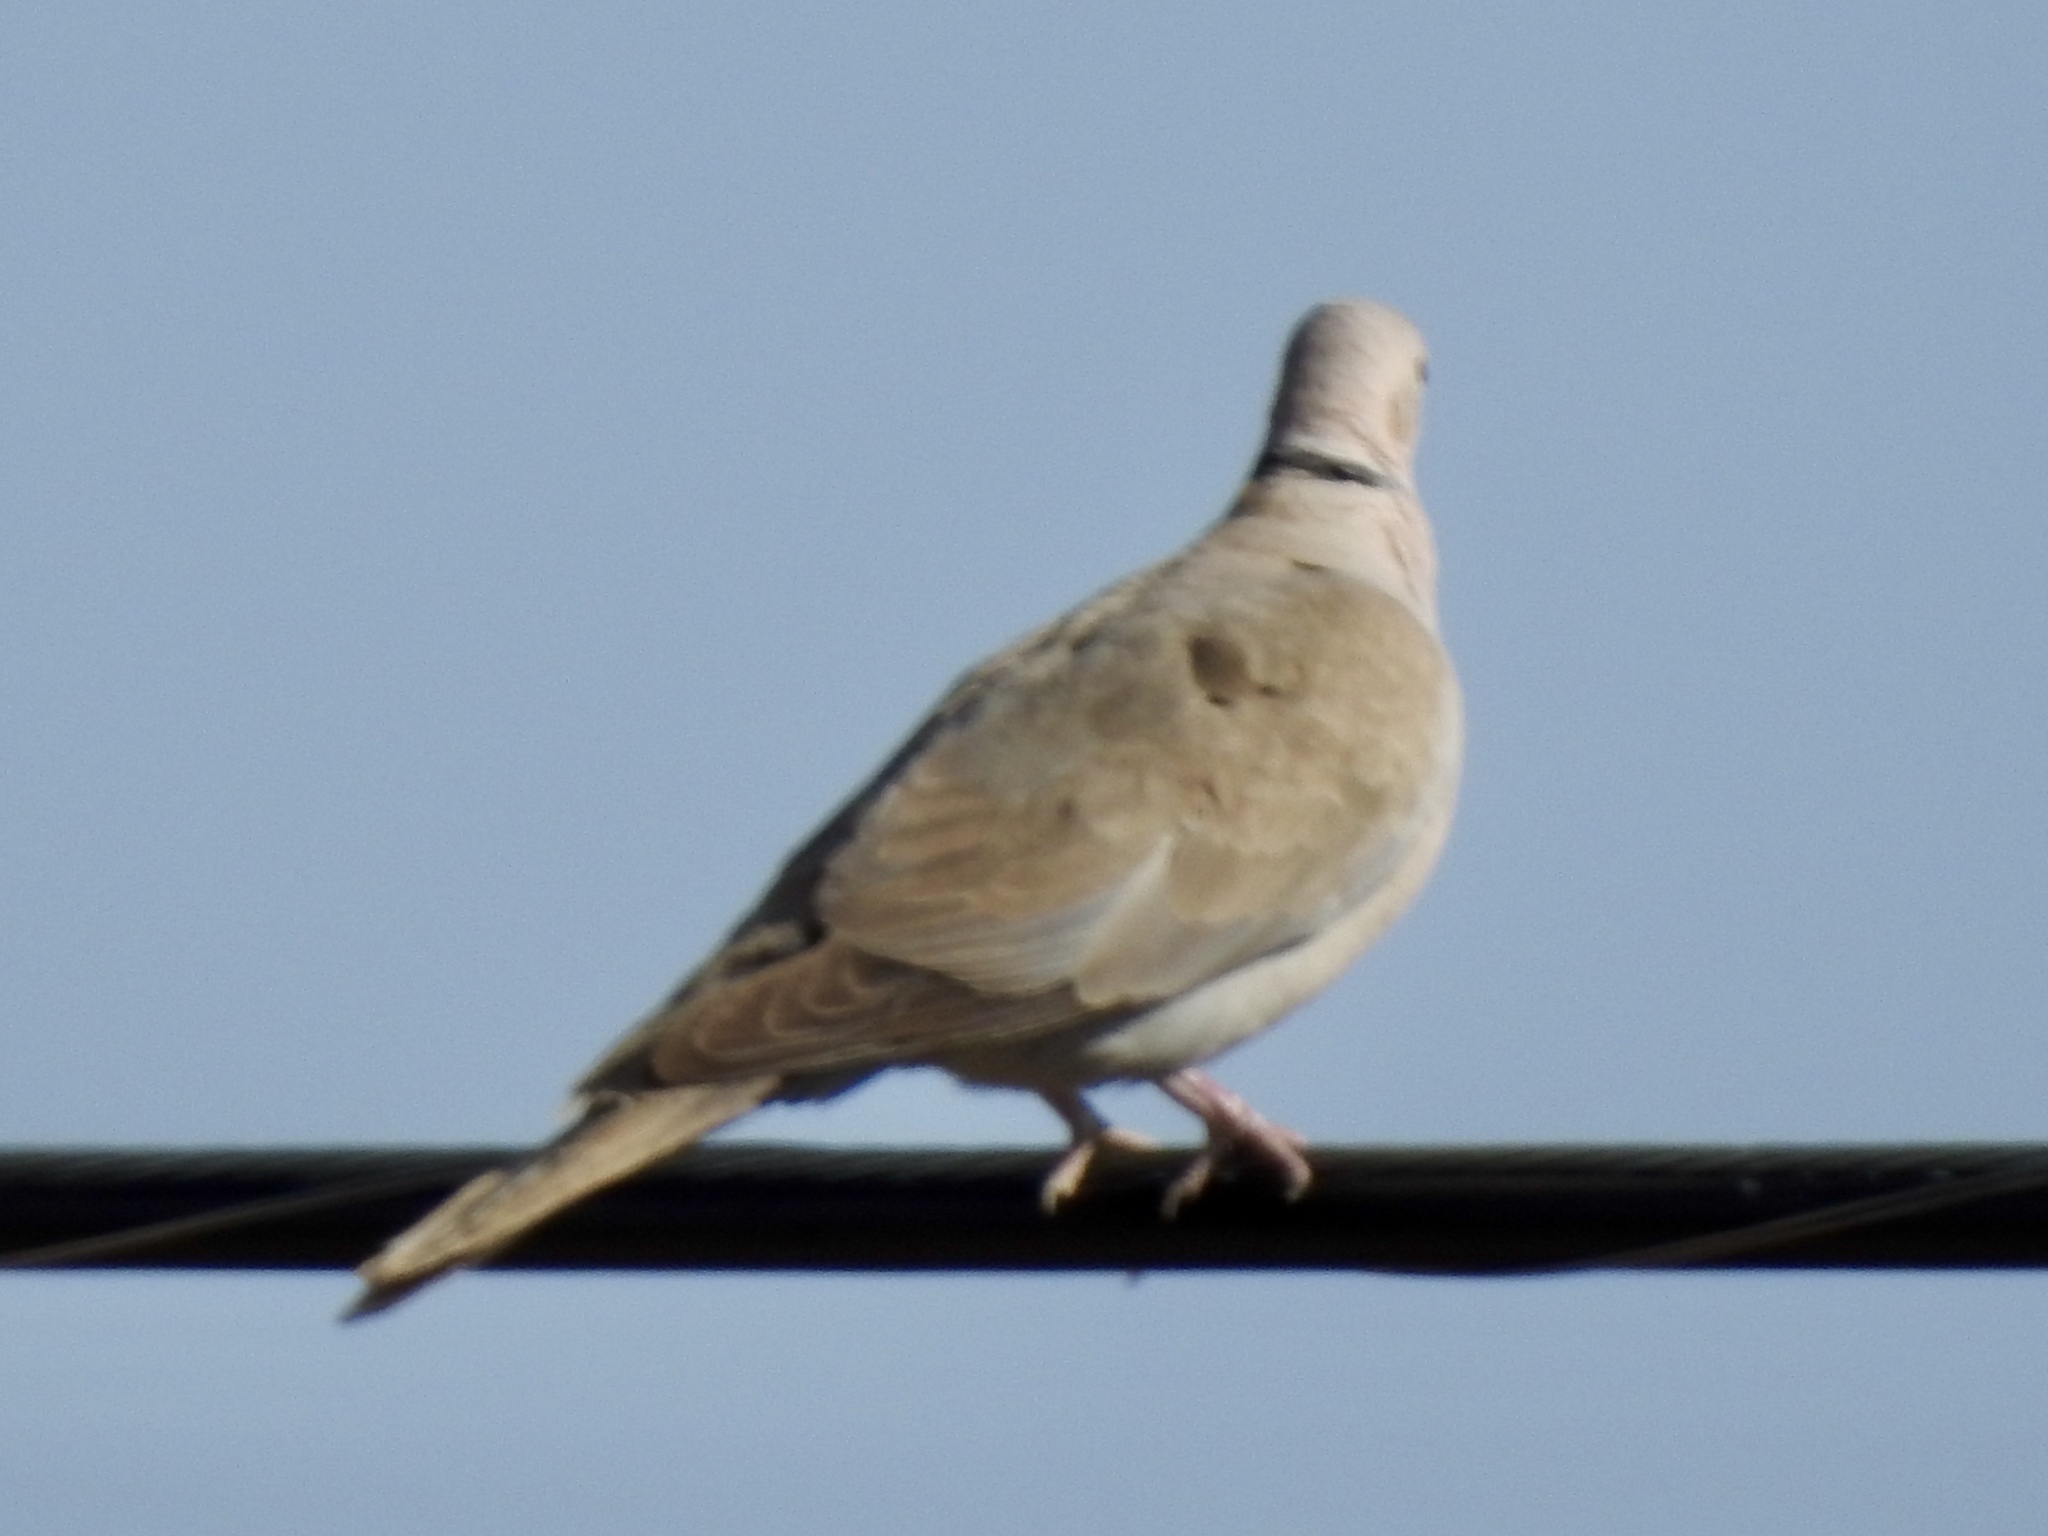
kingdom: Animalia
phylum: Chordata
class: Aves
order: Columbiformes
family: Columbidae
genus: Streptopelia
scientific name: Streptopelia decaocto
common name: Eurasian collared dove
